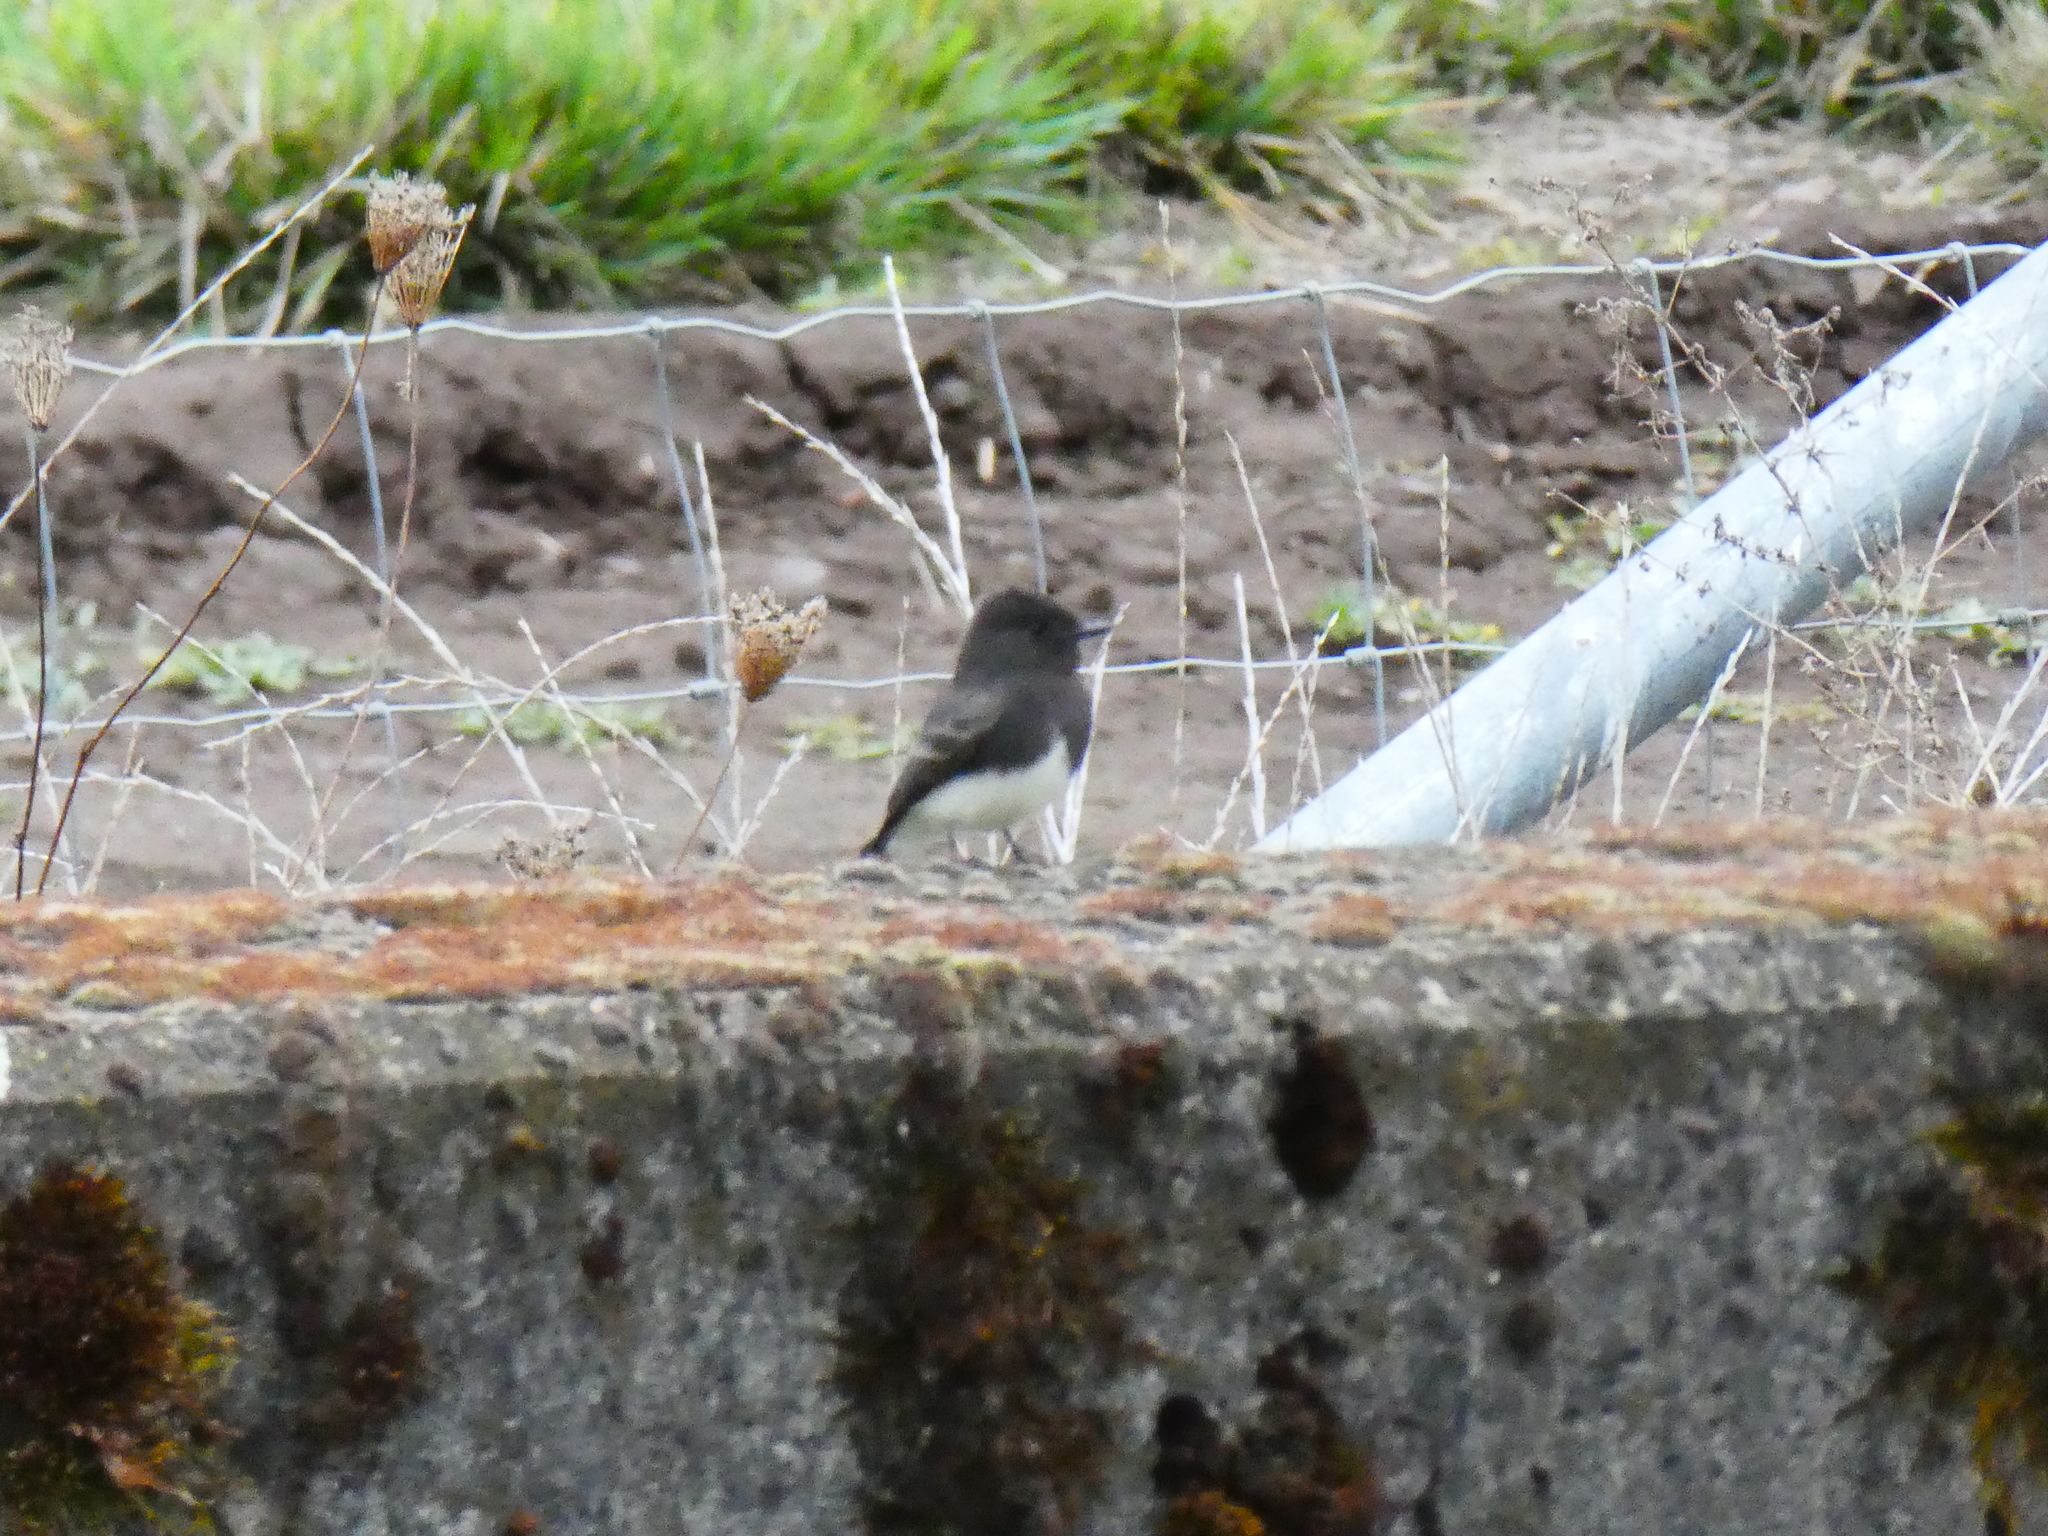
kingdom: Animalia
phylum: Chordata
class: Aves
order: Passeriformes
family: Tyrannidae
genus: Sayornis
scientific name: Sayornis nigricans
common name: Black phoebe
